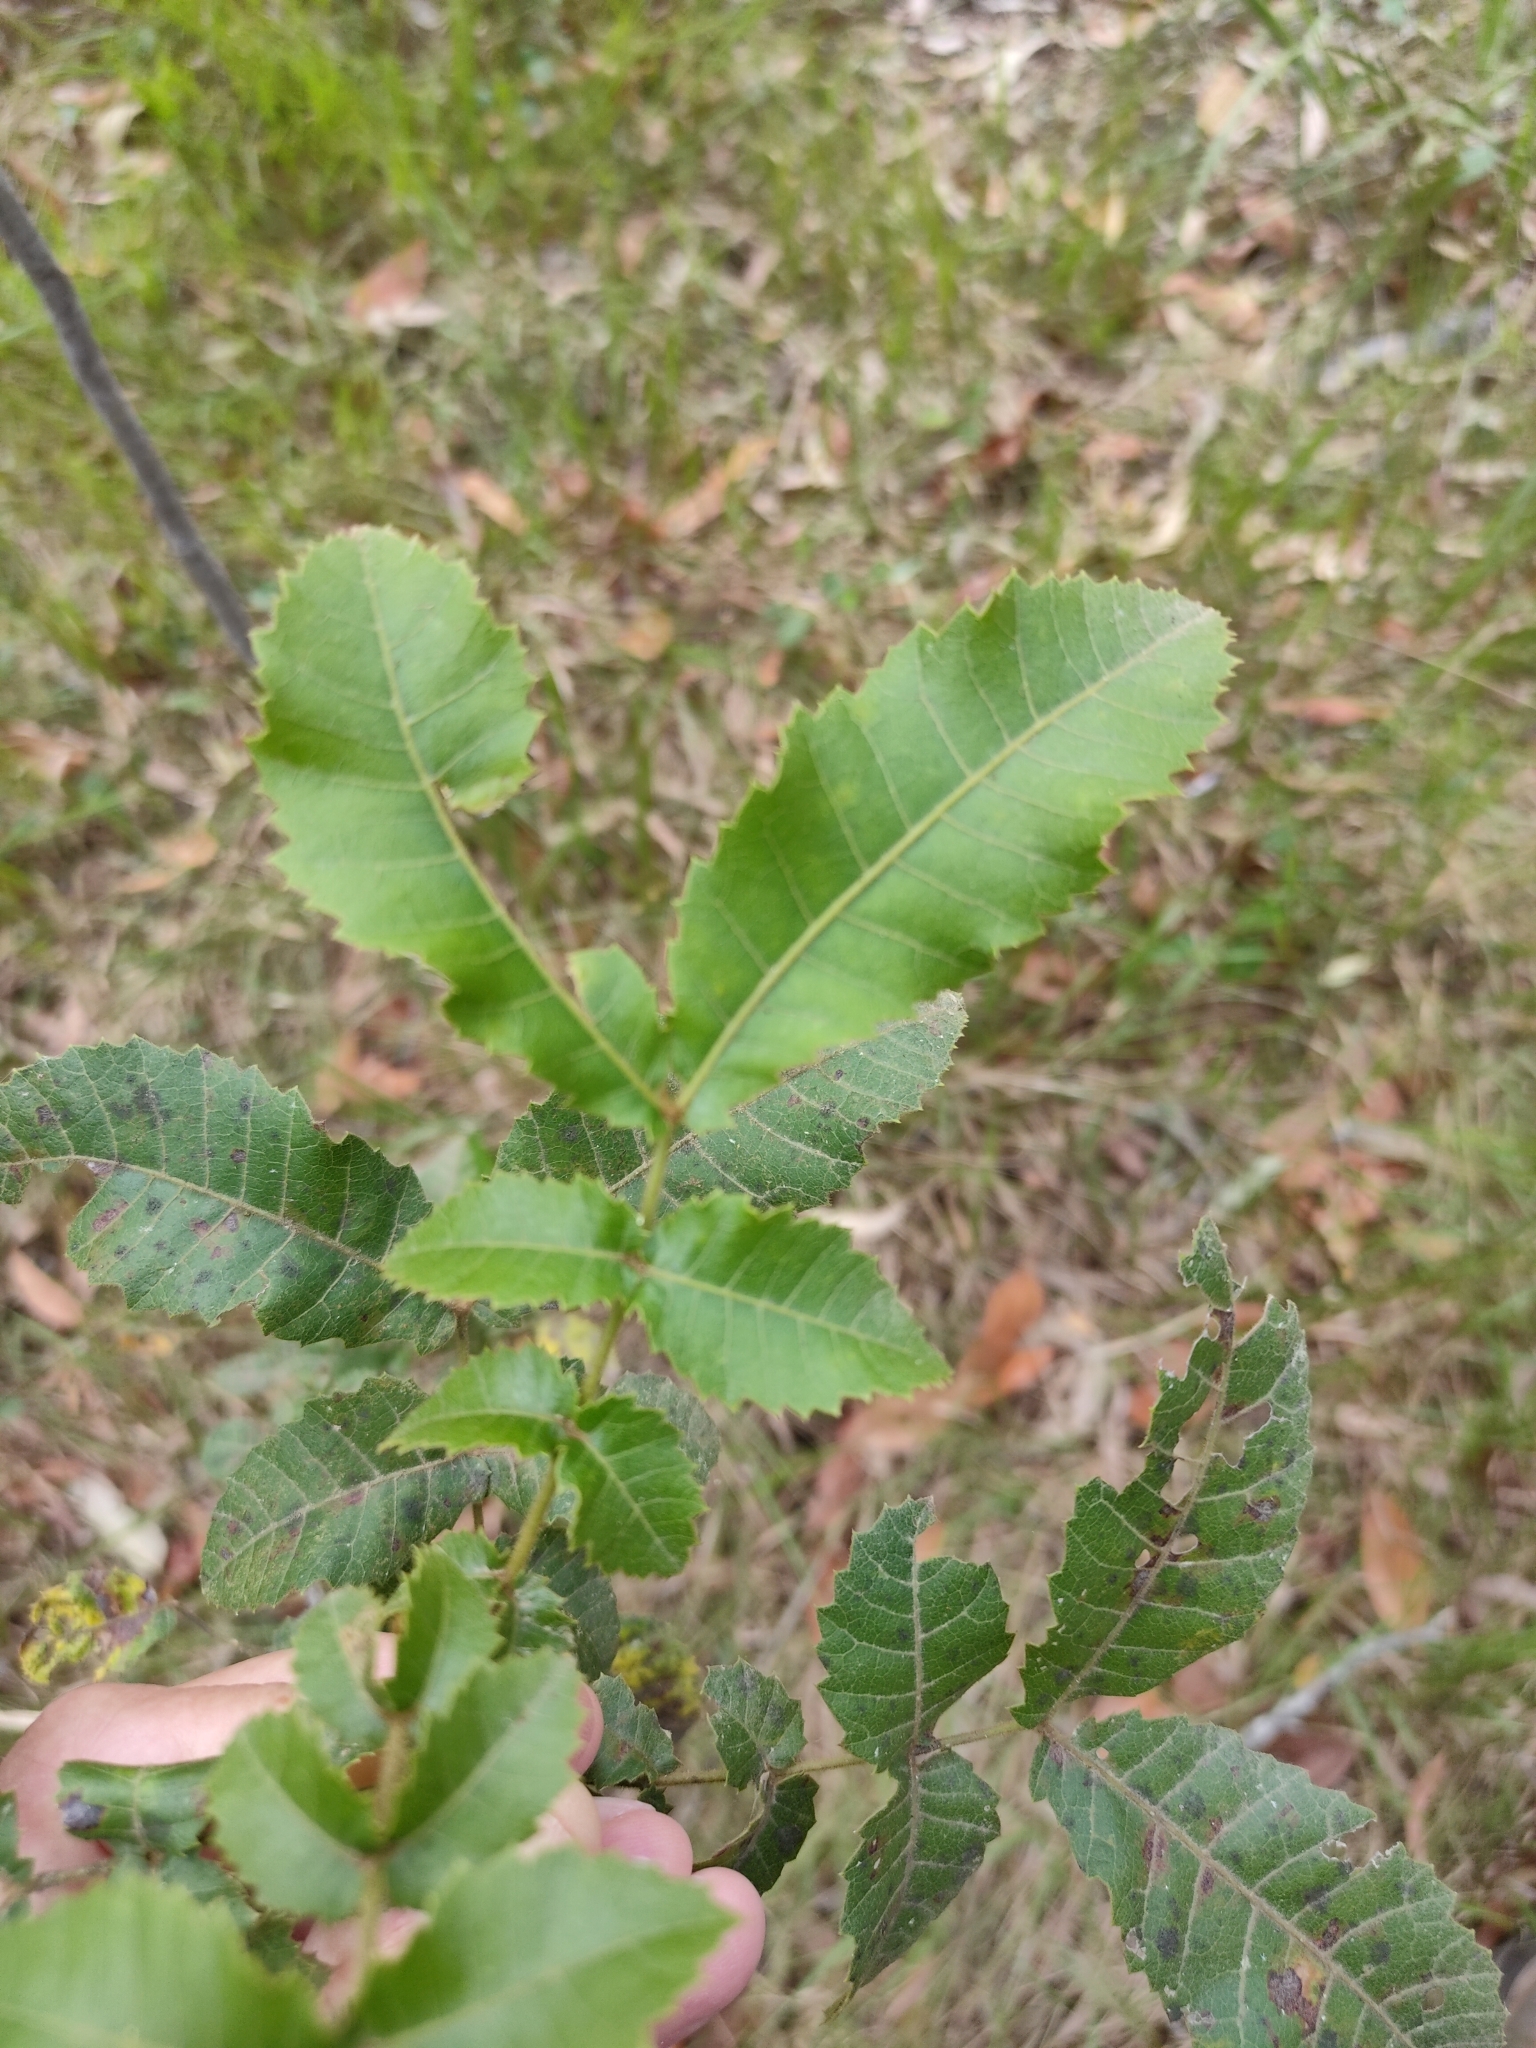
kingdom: Plantae
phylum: Tracheophyta
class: Magnoliopsida
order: Sapindales
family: Sapindaceae
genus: Alectryon
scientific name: Alectryon tomentosus
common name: Bed-jacket
